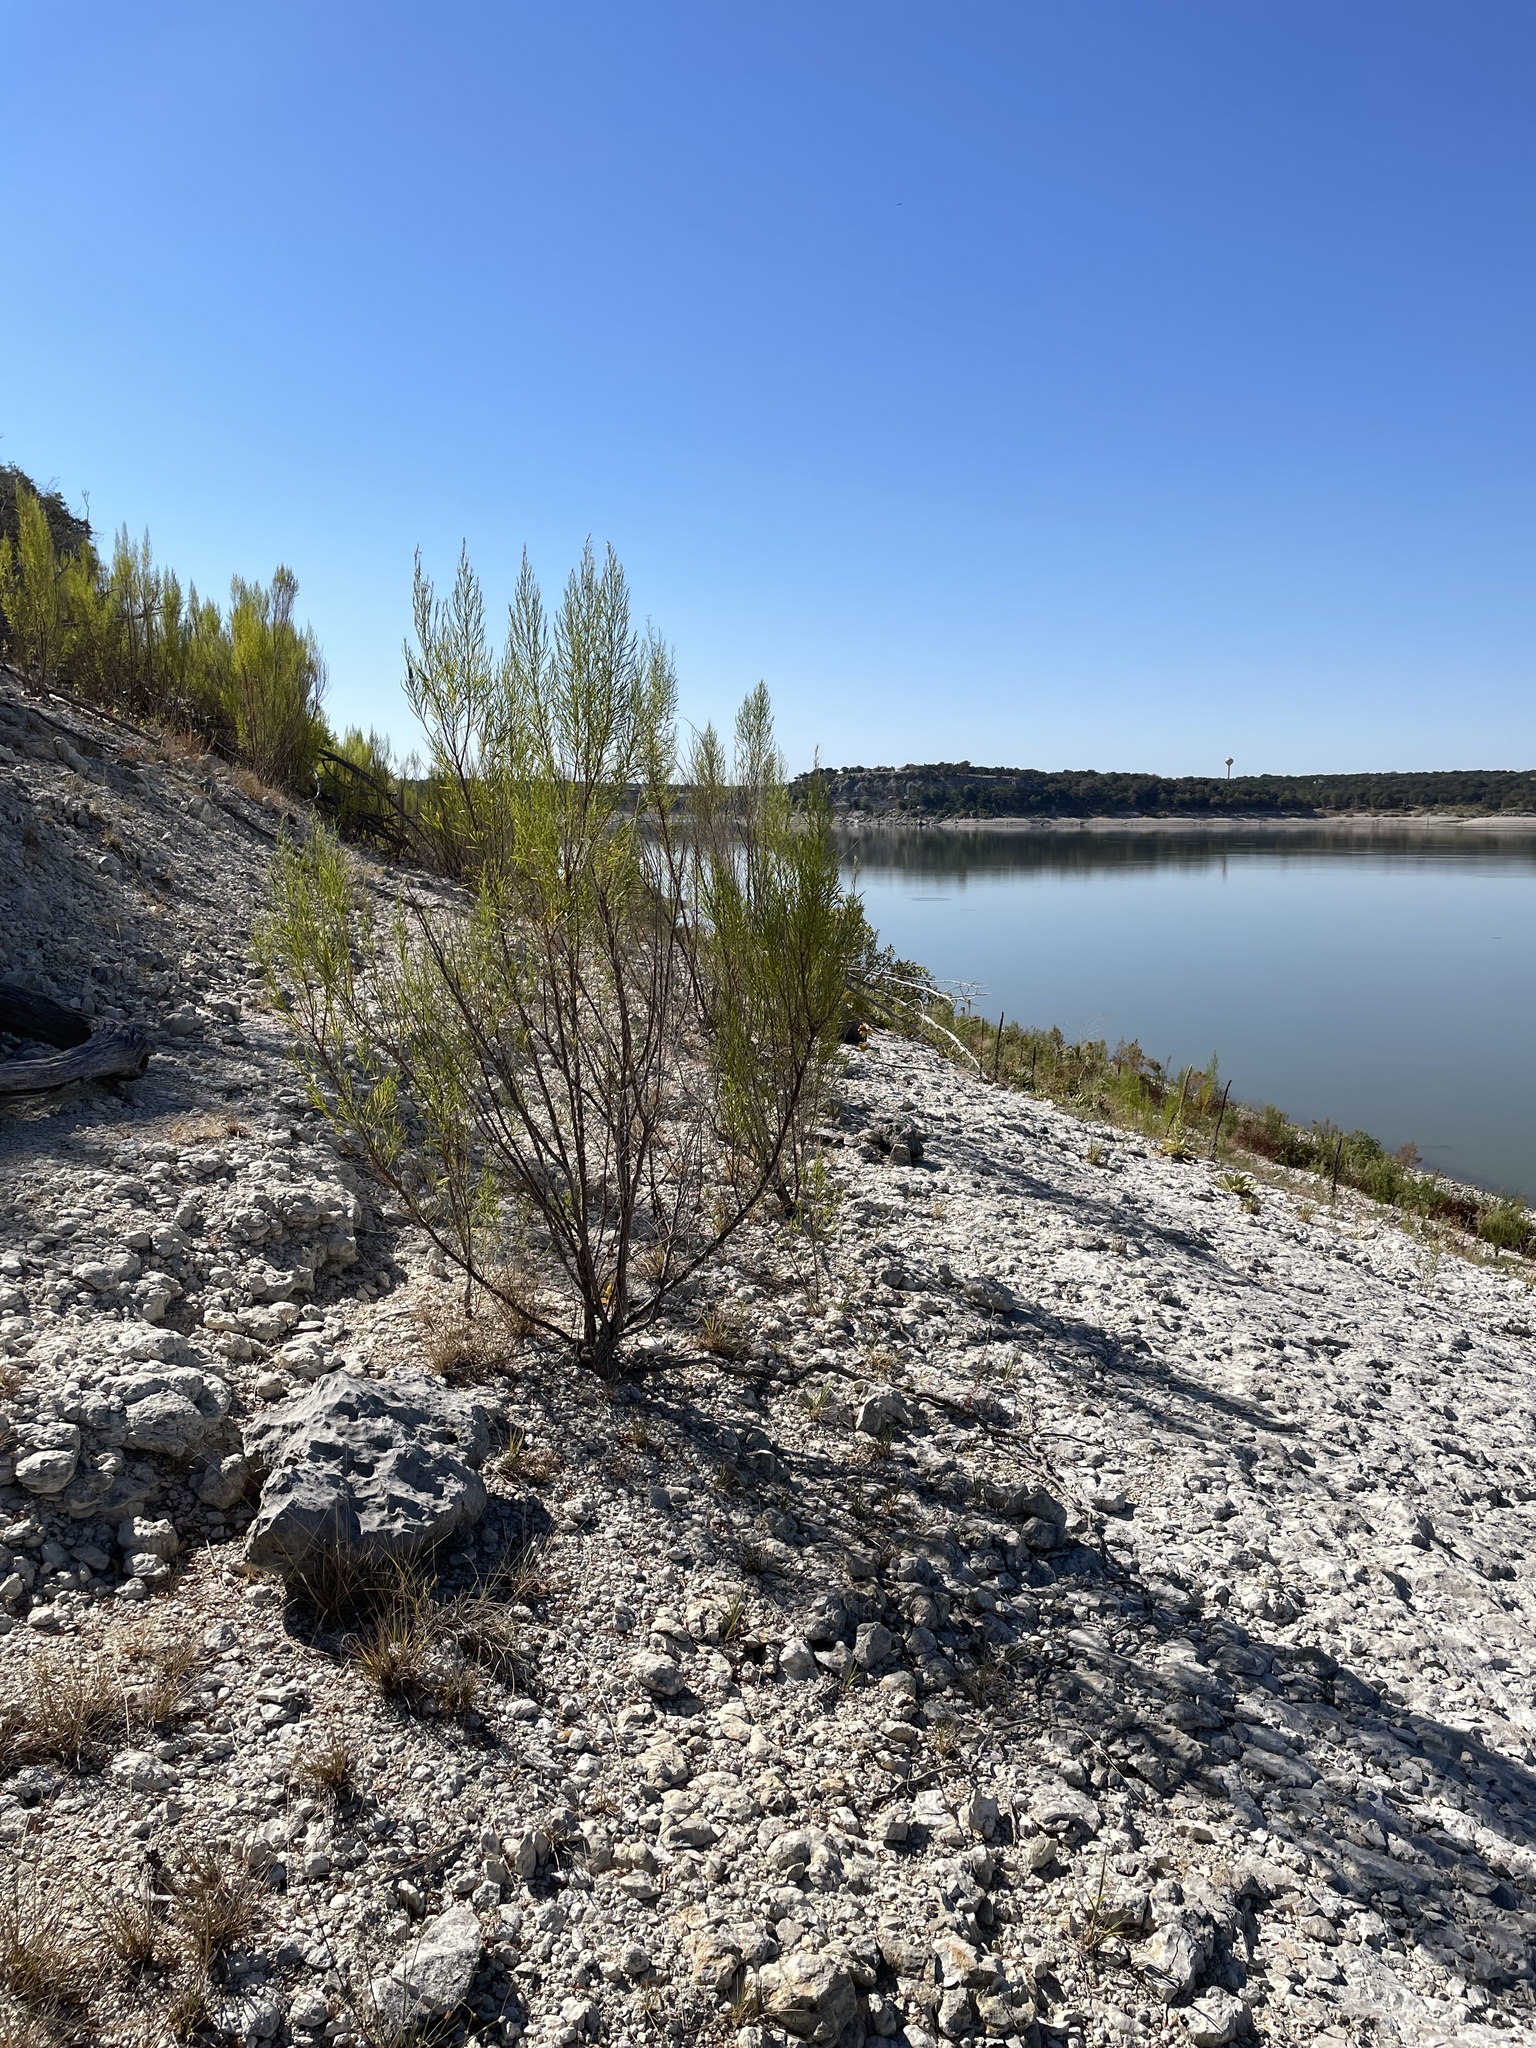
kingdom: Plantae
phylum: Tracheophyta
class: Magnoliopsida
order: Asterales
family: Asteraceae
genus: Baccharis
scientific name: Baccharis neglecta
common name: Roosevelt-weed
